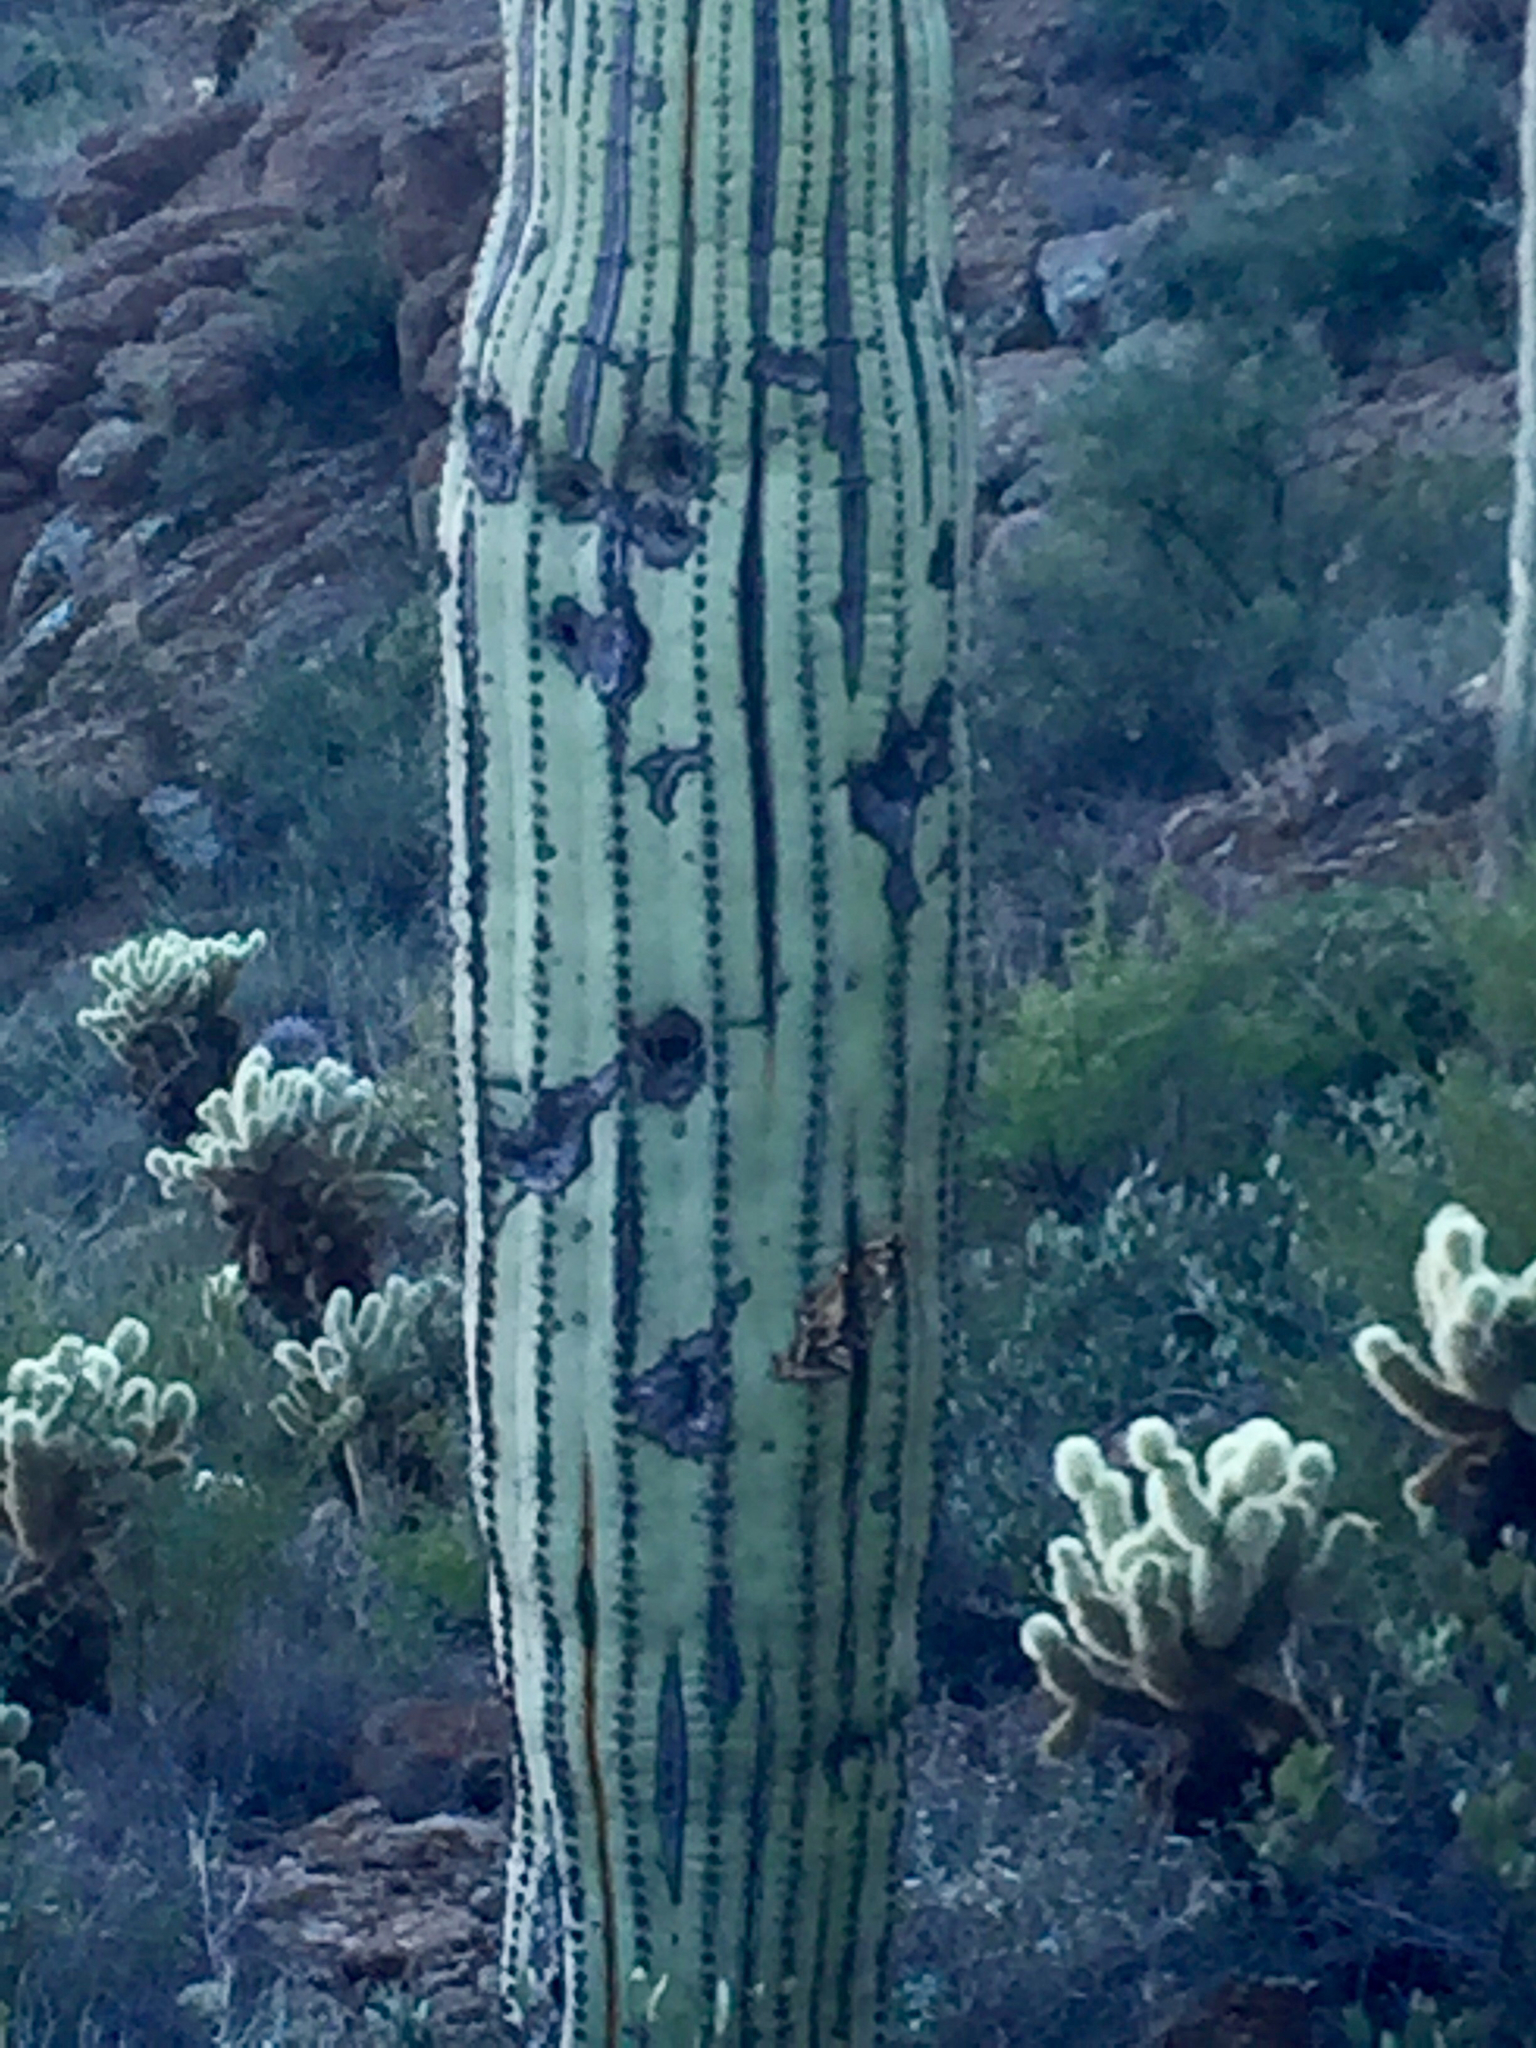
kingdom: Plantae
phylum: Tracheophyta
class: Magnoliopsida
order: Caryophyllales
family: Cactaceae
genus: Carnegiea
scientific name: Carnegiea gigantea
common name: Saguaro
